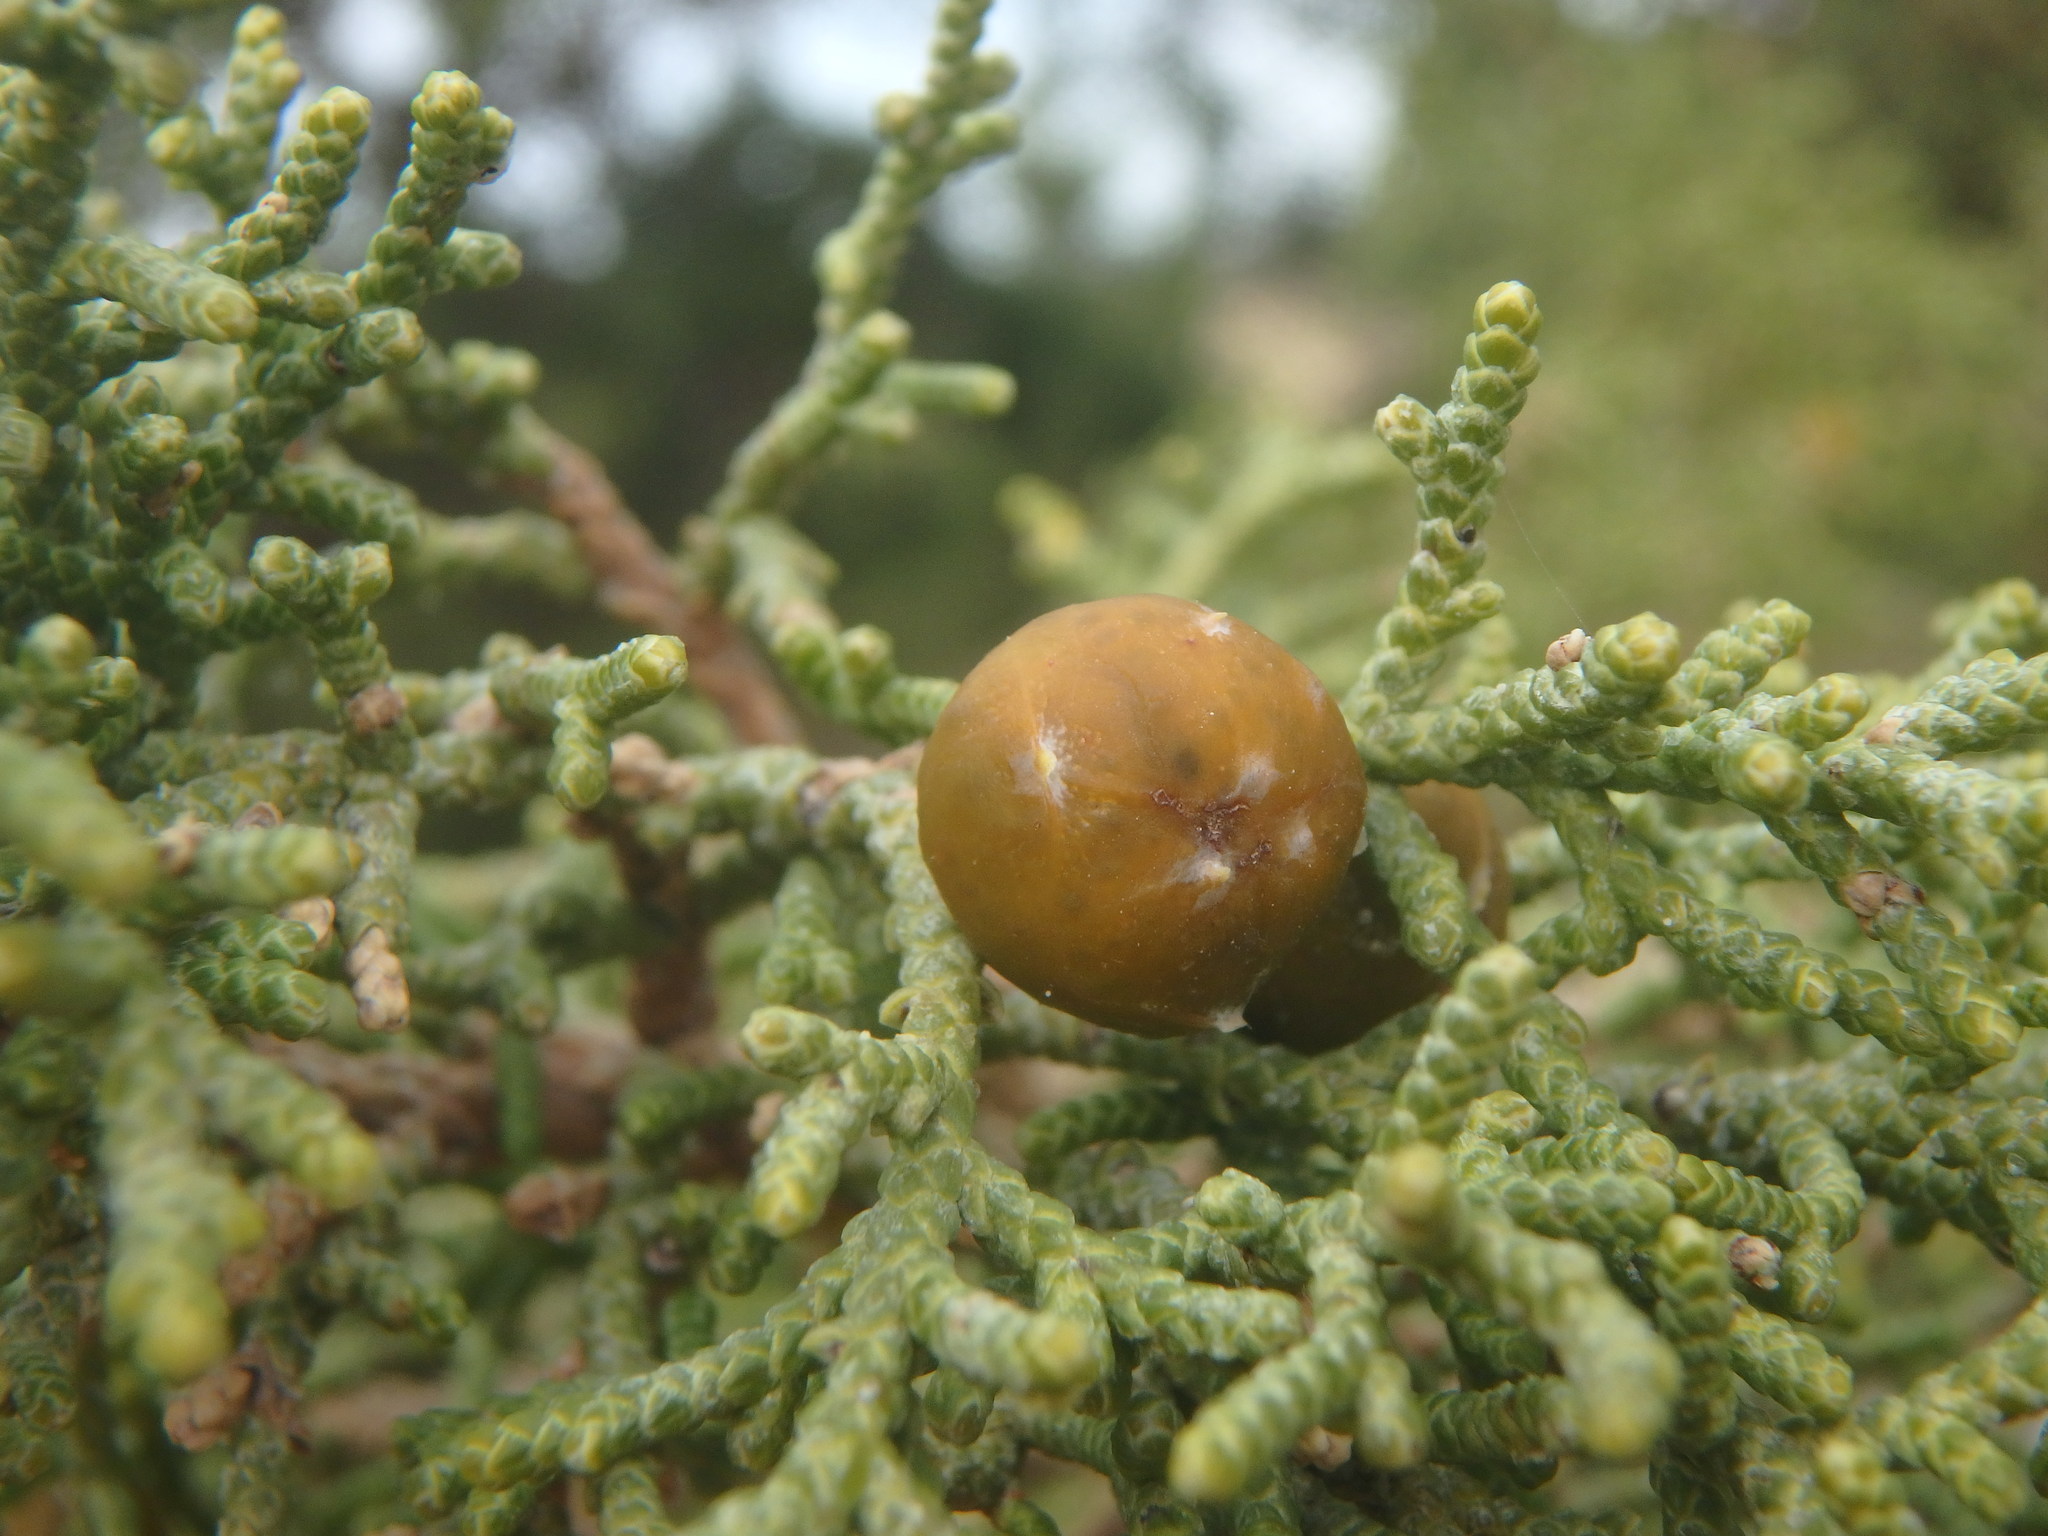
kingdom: Plantae
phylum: Tracheophyta
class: Pinopsida
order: Pinales
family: Cupressaceae
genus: Juniperus
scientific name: Juniperus phoenicea
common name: Phoenician juniper
